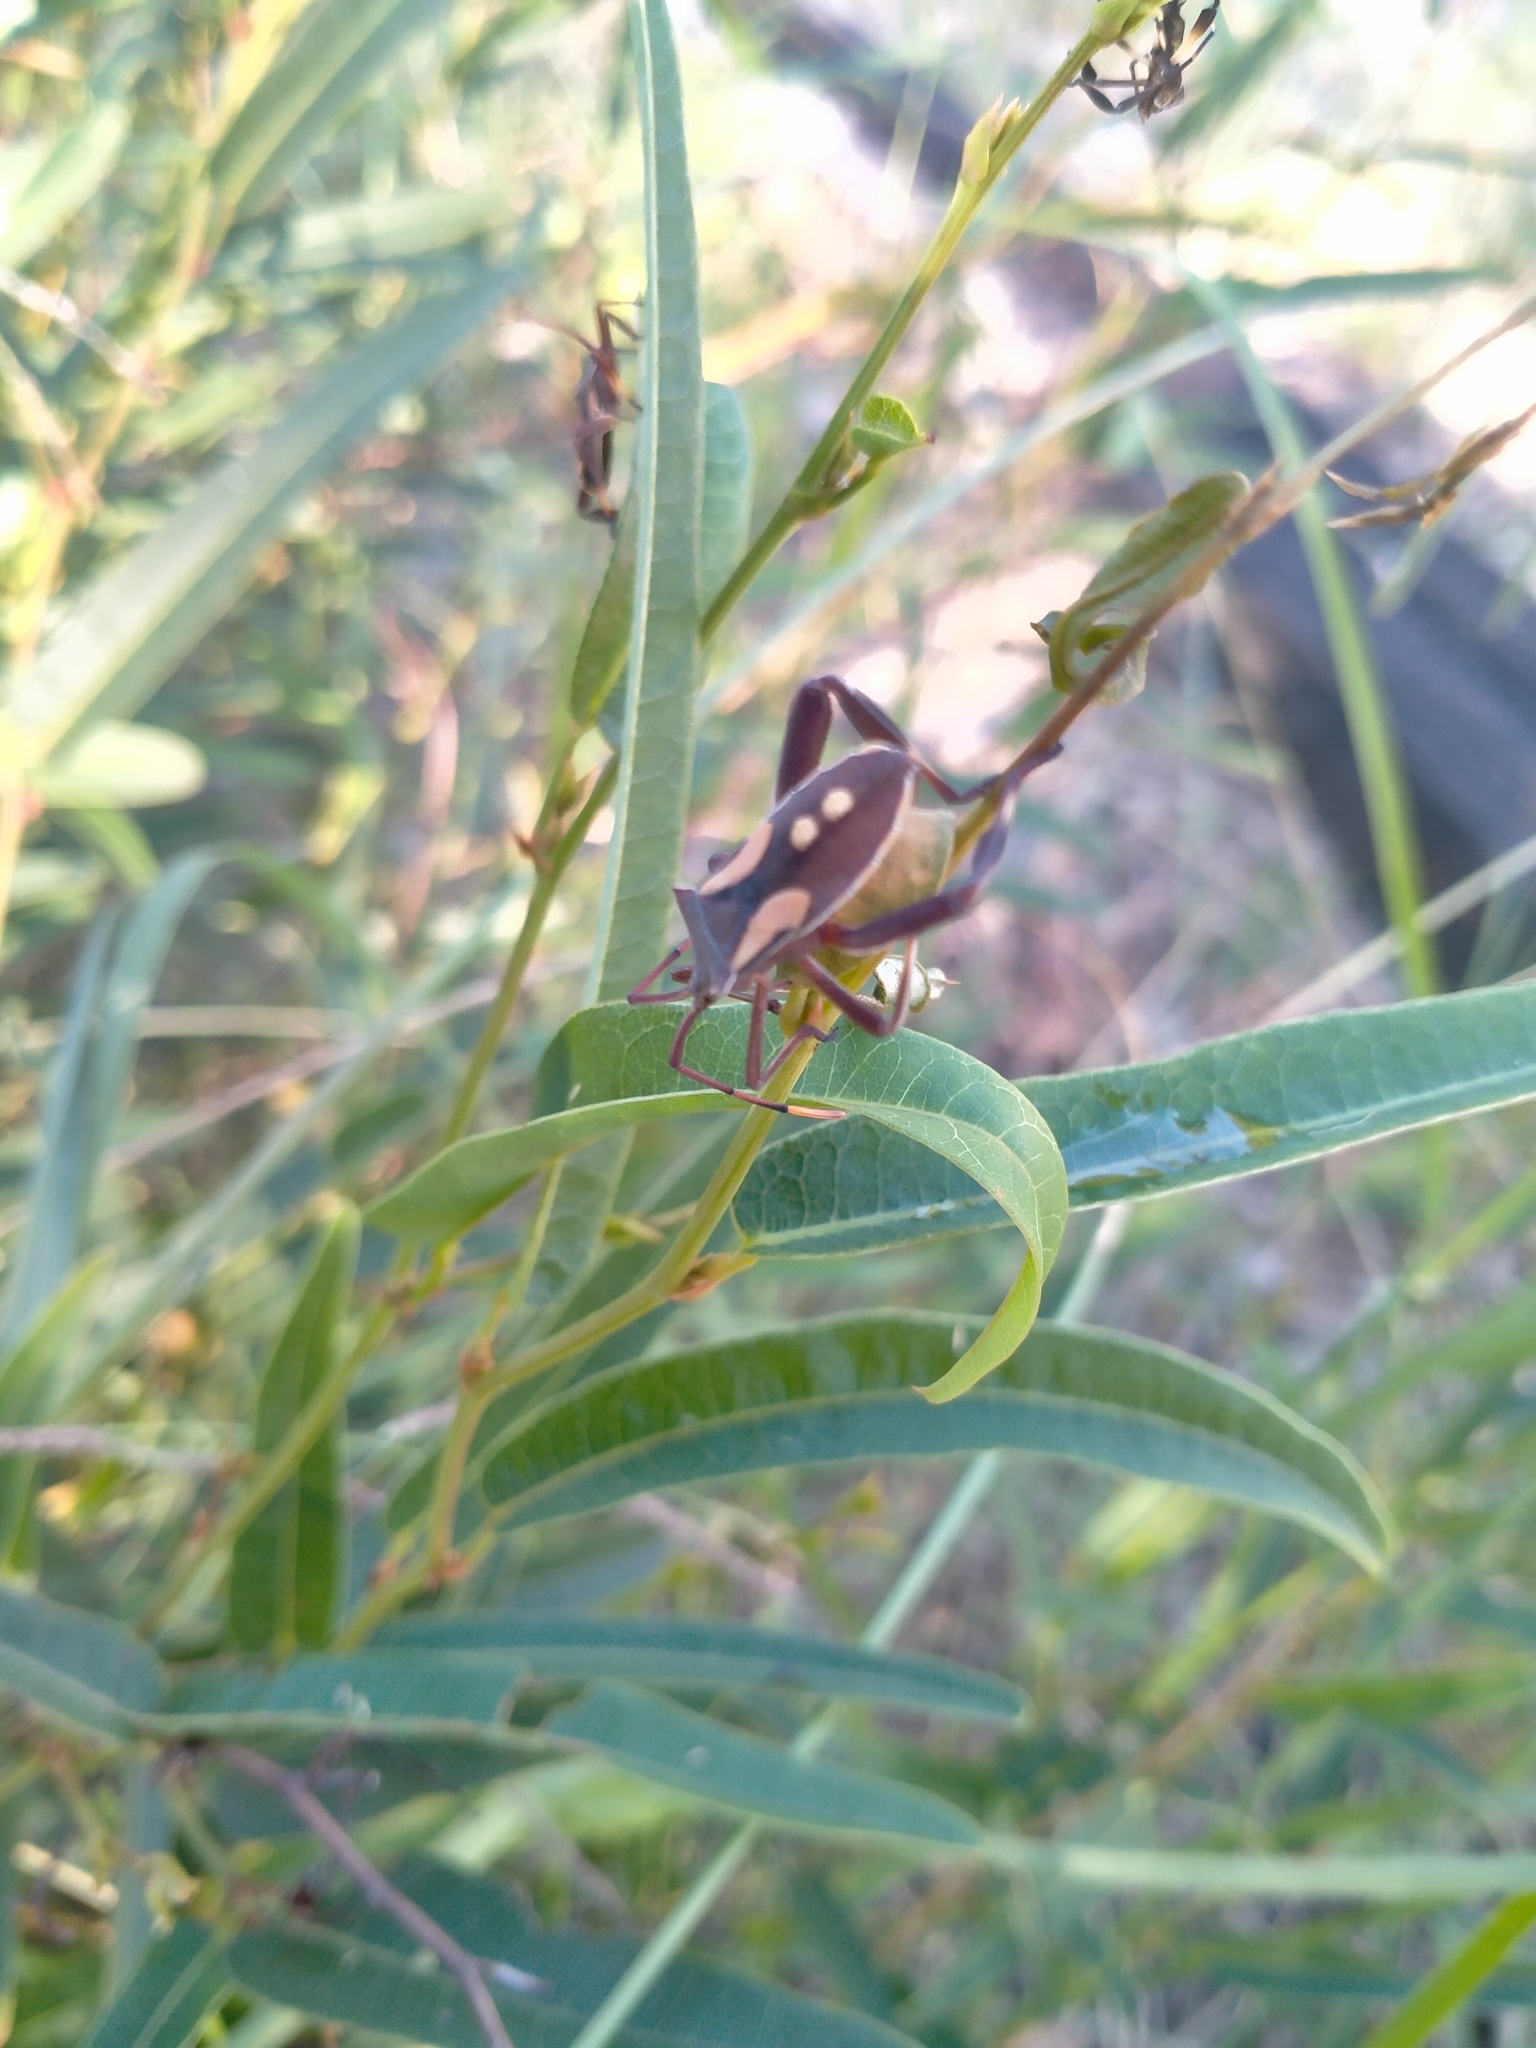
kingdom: Animalia
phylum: Arthropoda
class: Insecta
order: Hemiptera
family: Coreidae
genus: Mictis
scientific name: Mictis profana
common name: Crusader bug
